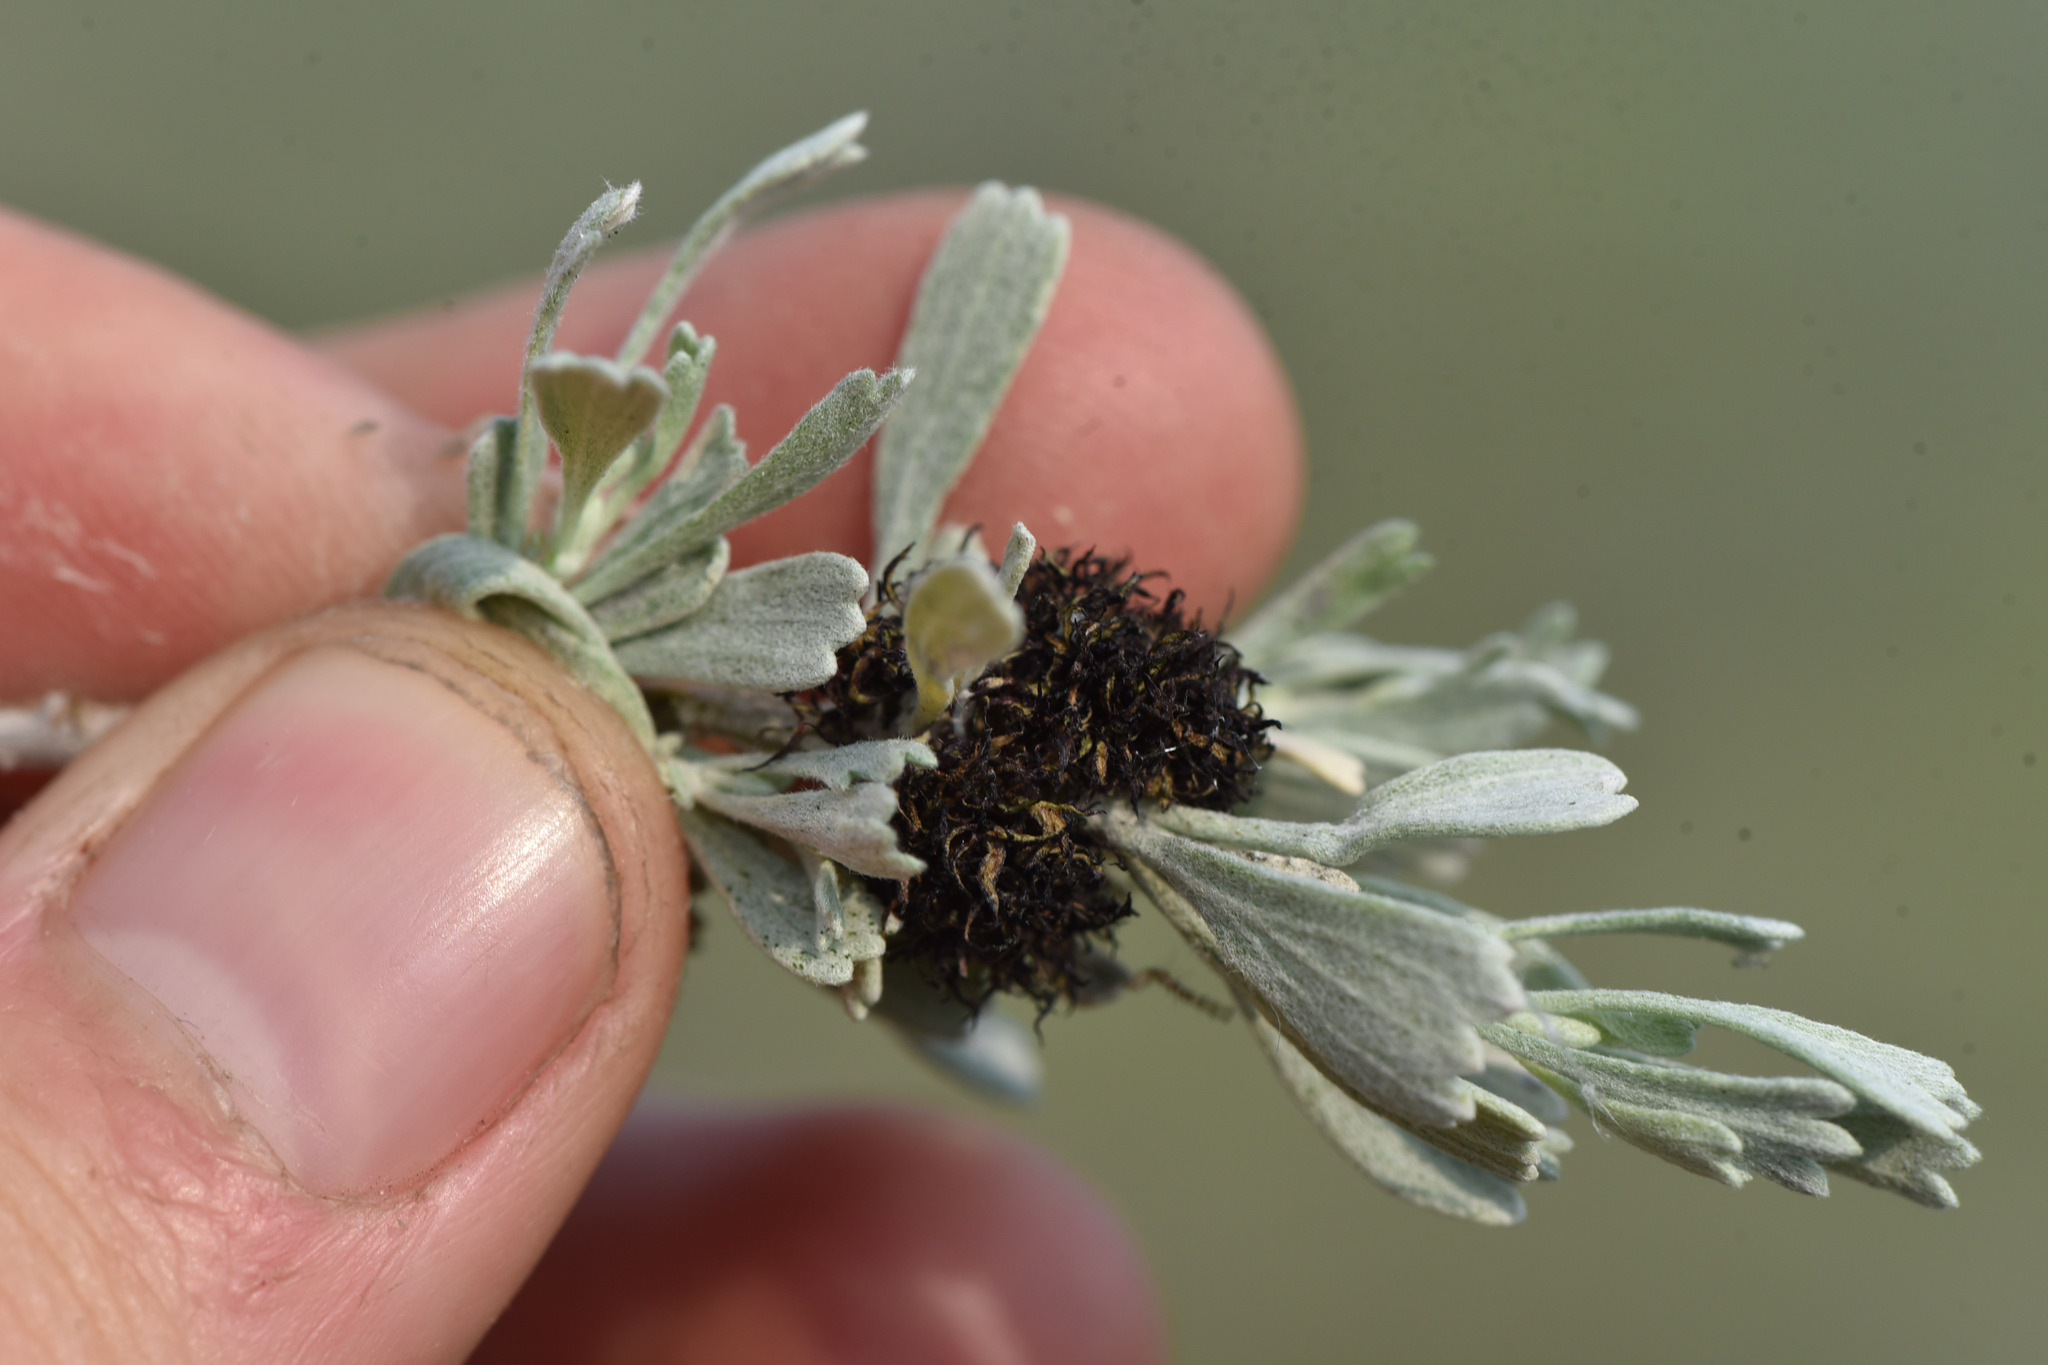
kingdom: Animalia
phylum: Arthropoda
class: Insecta
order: Diptera
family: Cecidomyiidae
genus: Rhopalomyia
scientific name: Rhopalomyia medusa
